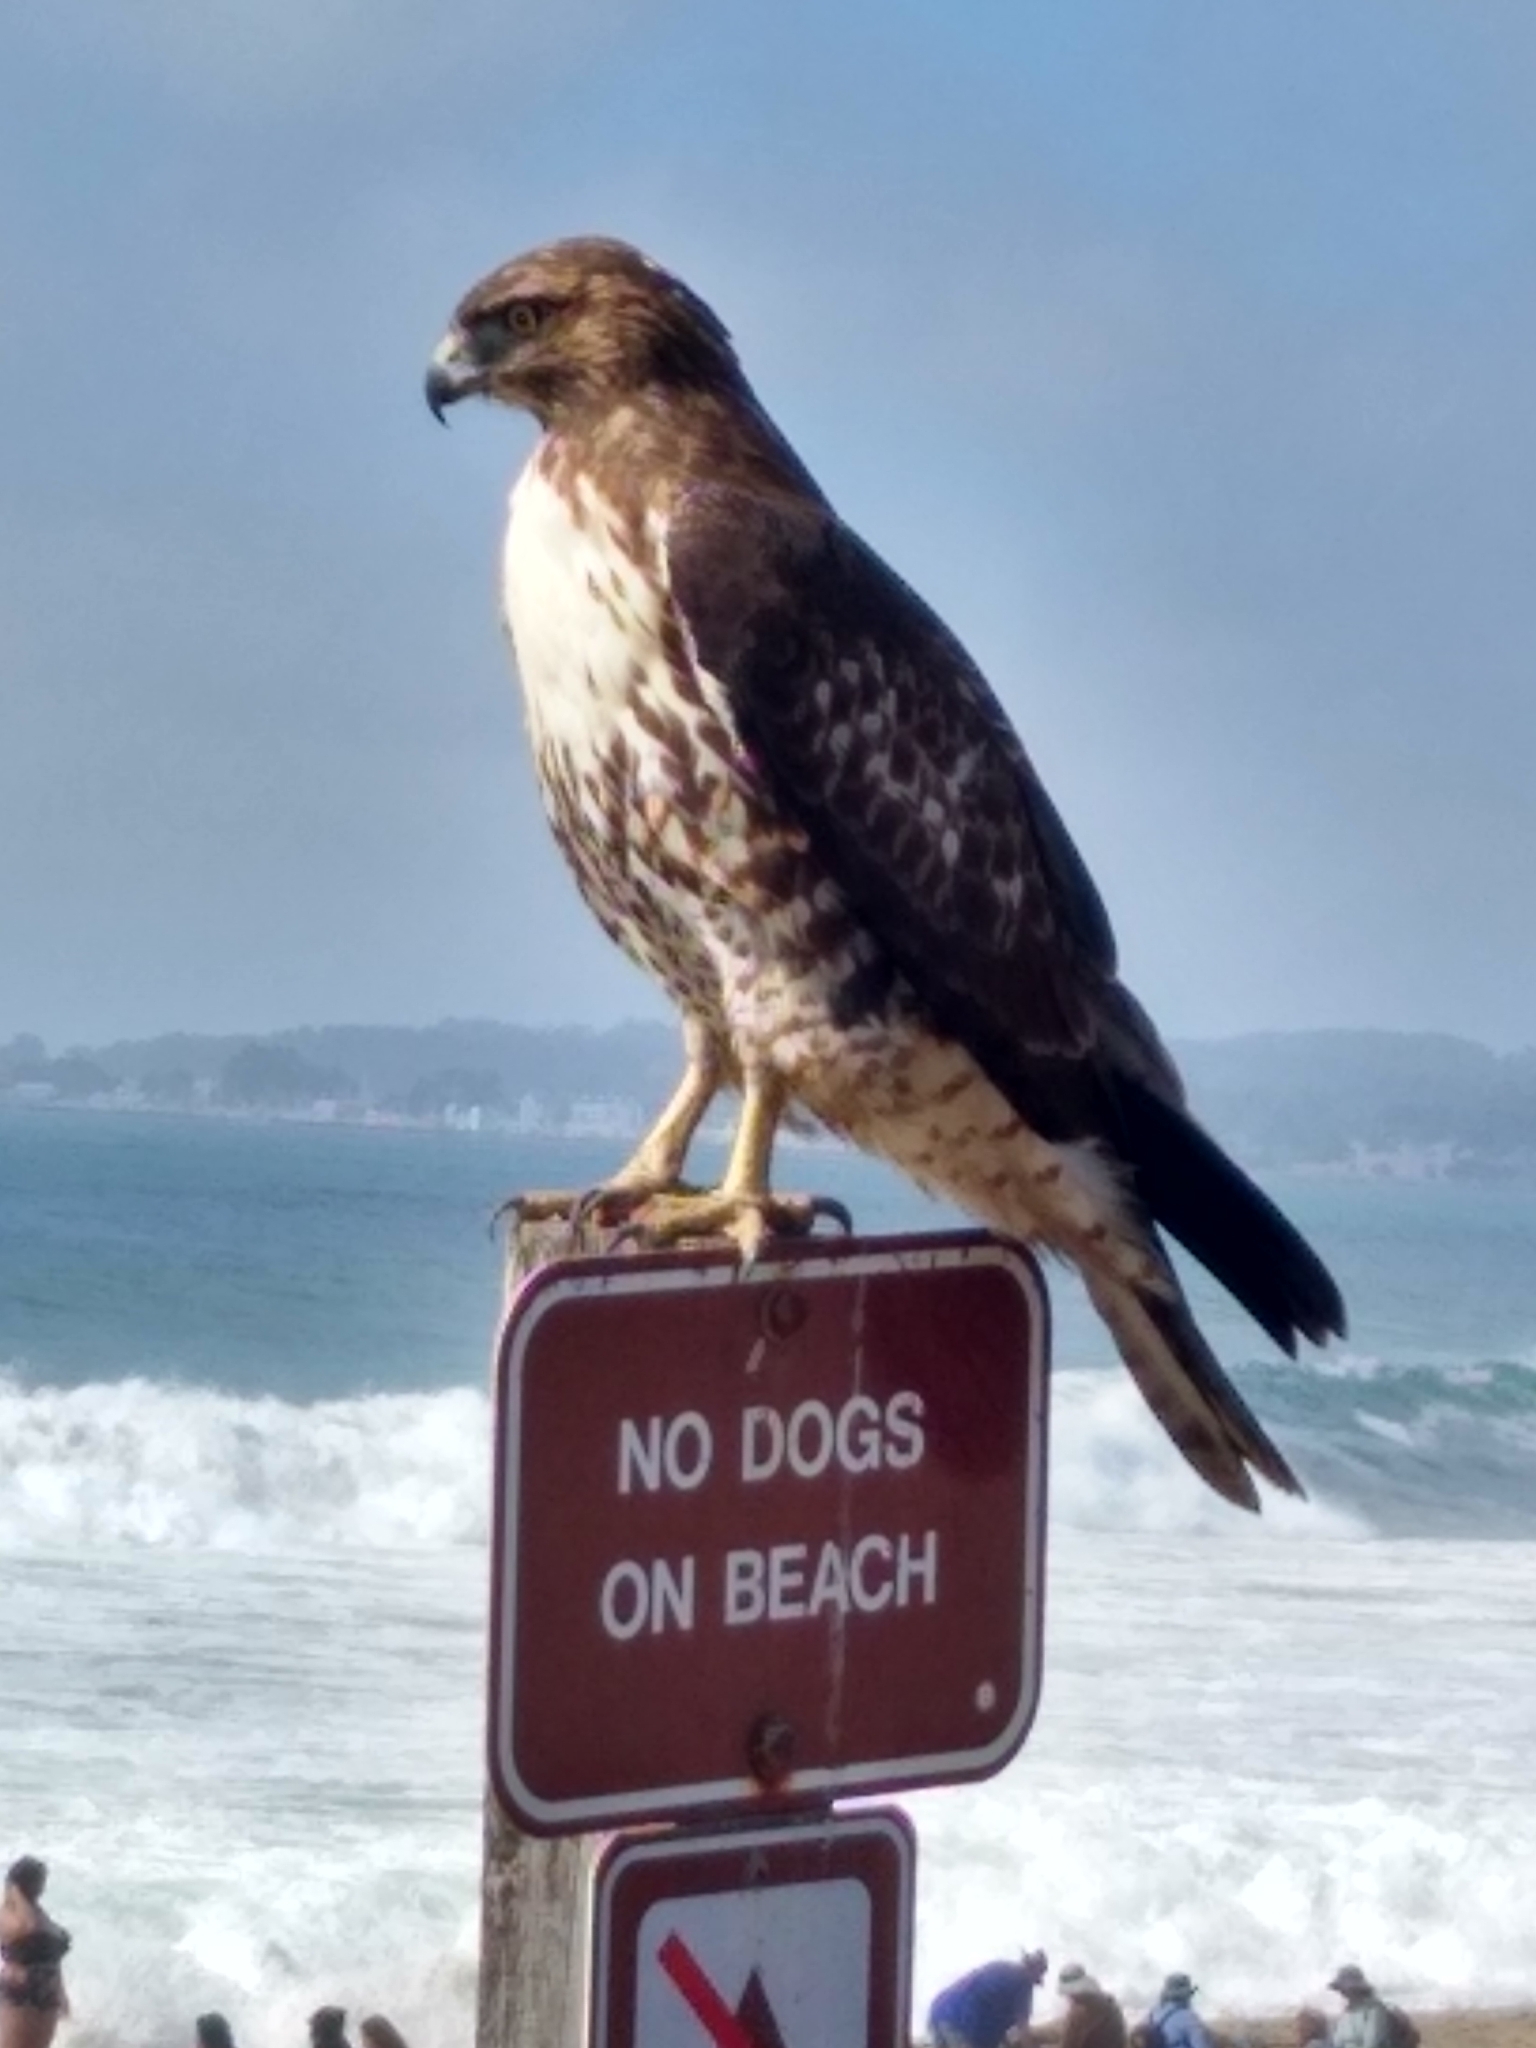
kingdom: Animalia
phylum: Chordata
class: Aves
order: Accipitriformes
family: Accipitridae
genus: Buteo
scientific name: Buteo jamaicensis
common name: Red-tailed hawk
